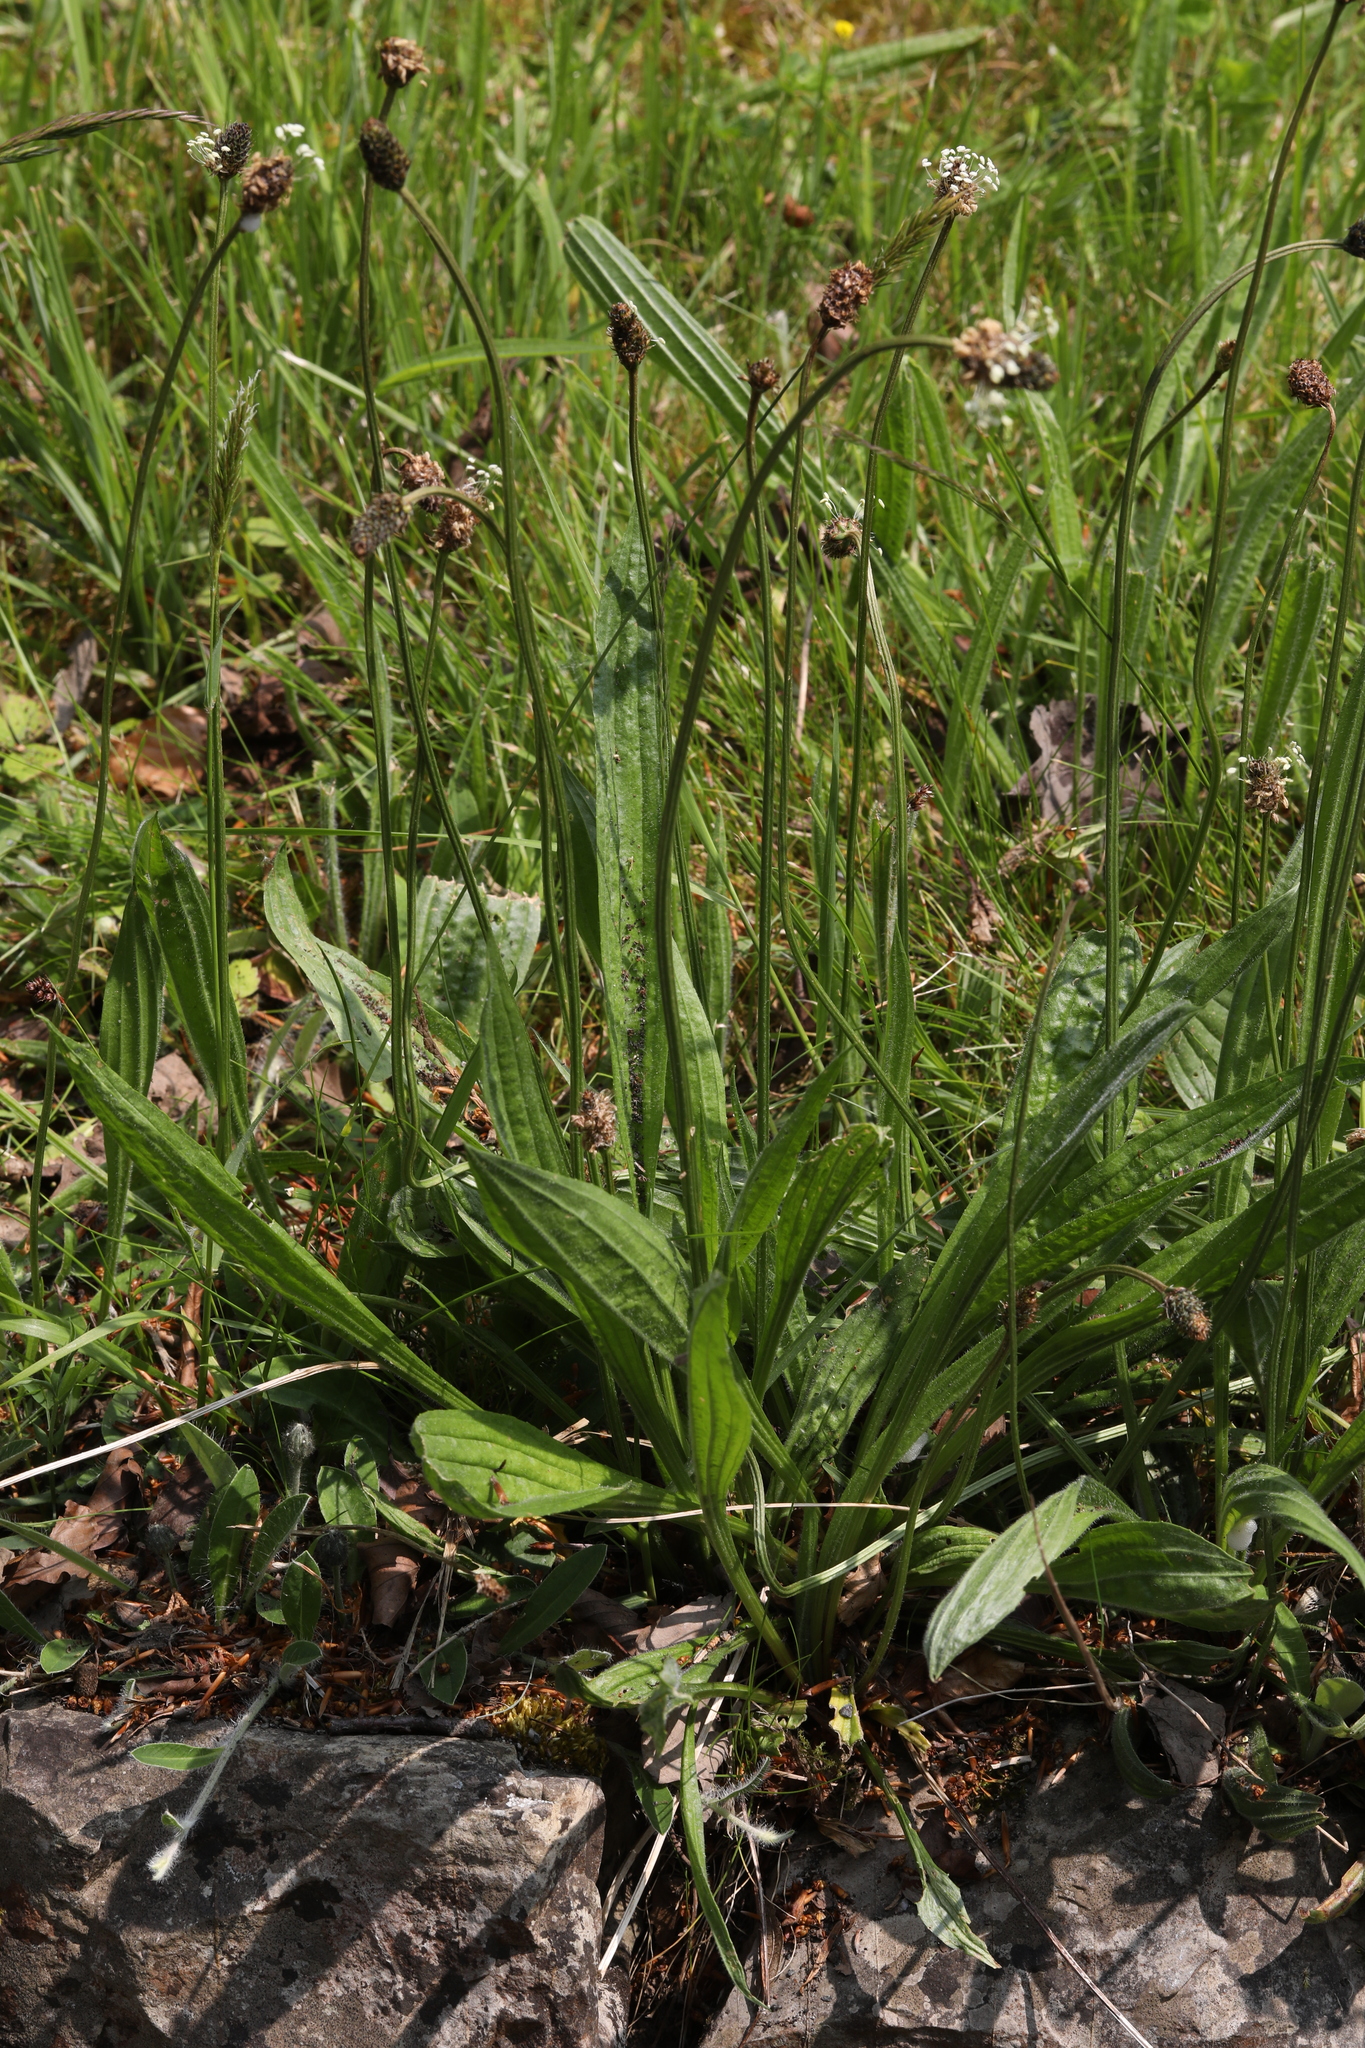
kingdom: Plantae
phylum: Tracheophyta
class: Magnoliopsida
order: Lamiales
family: Plantaginaceae
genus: Plantago
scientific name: Plantago lanceolata
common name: Ribwort plantain
